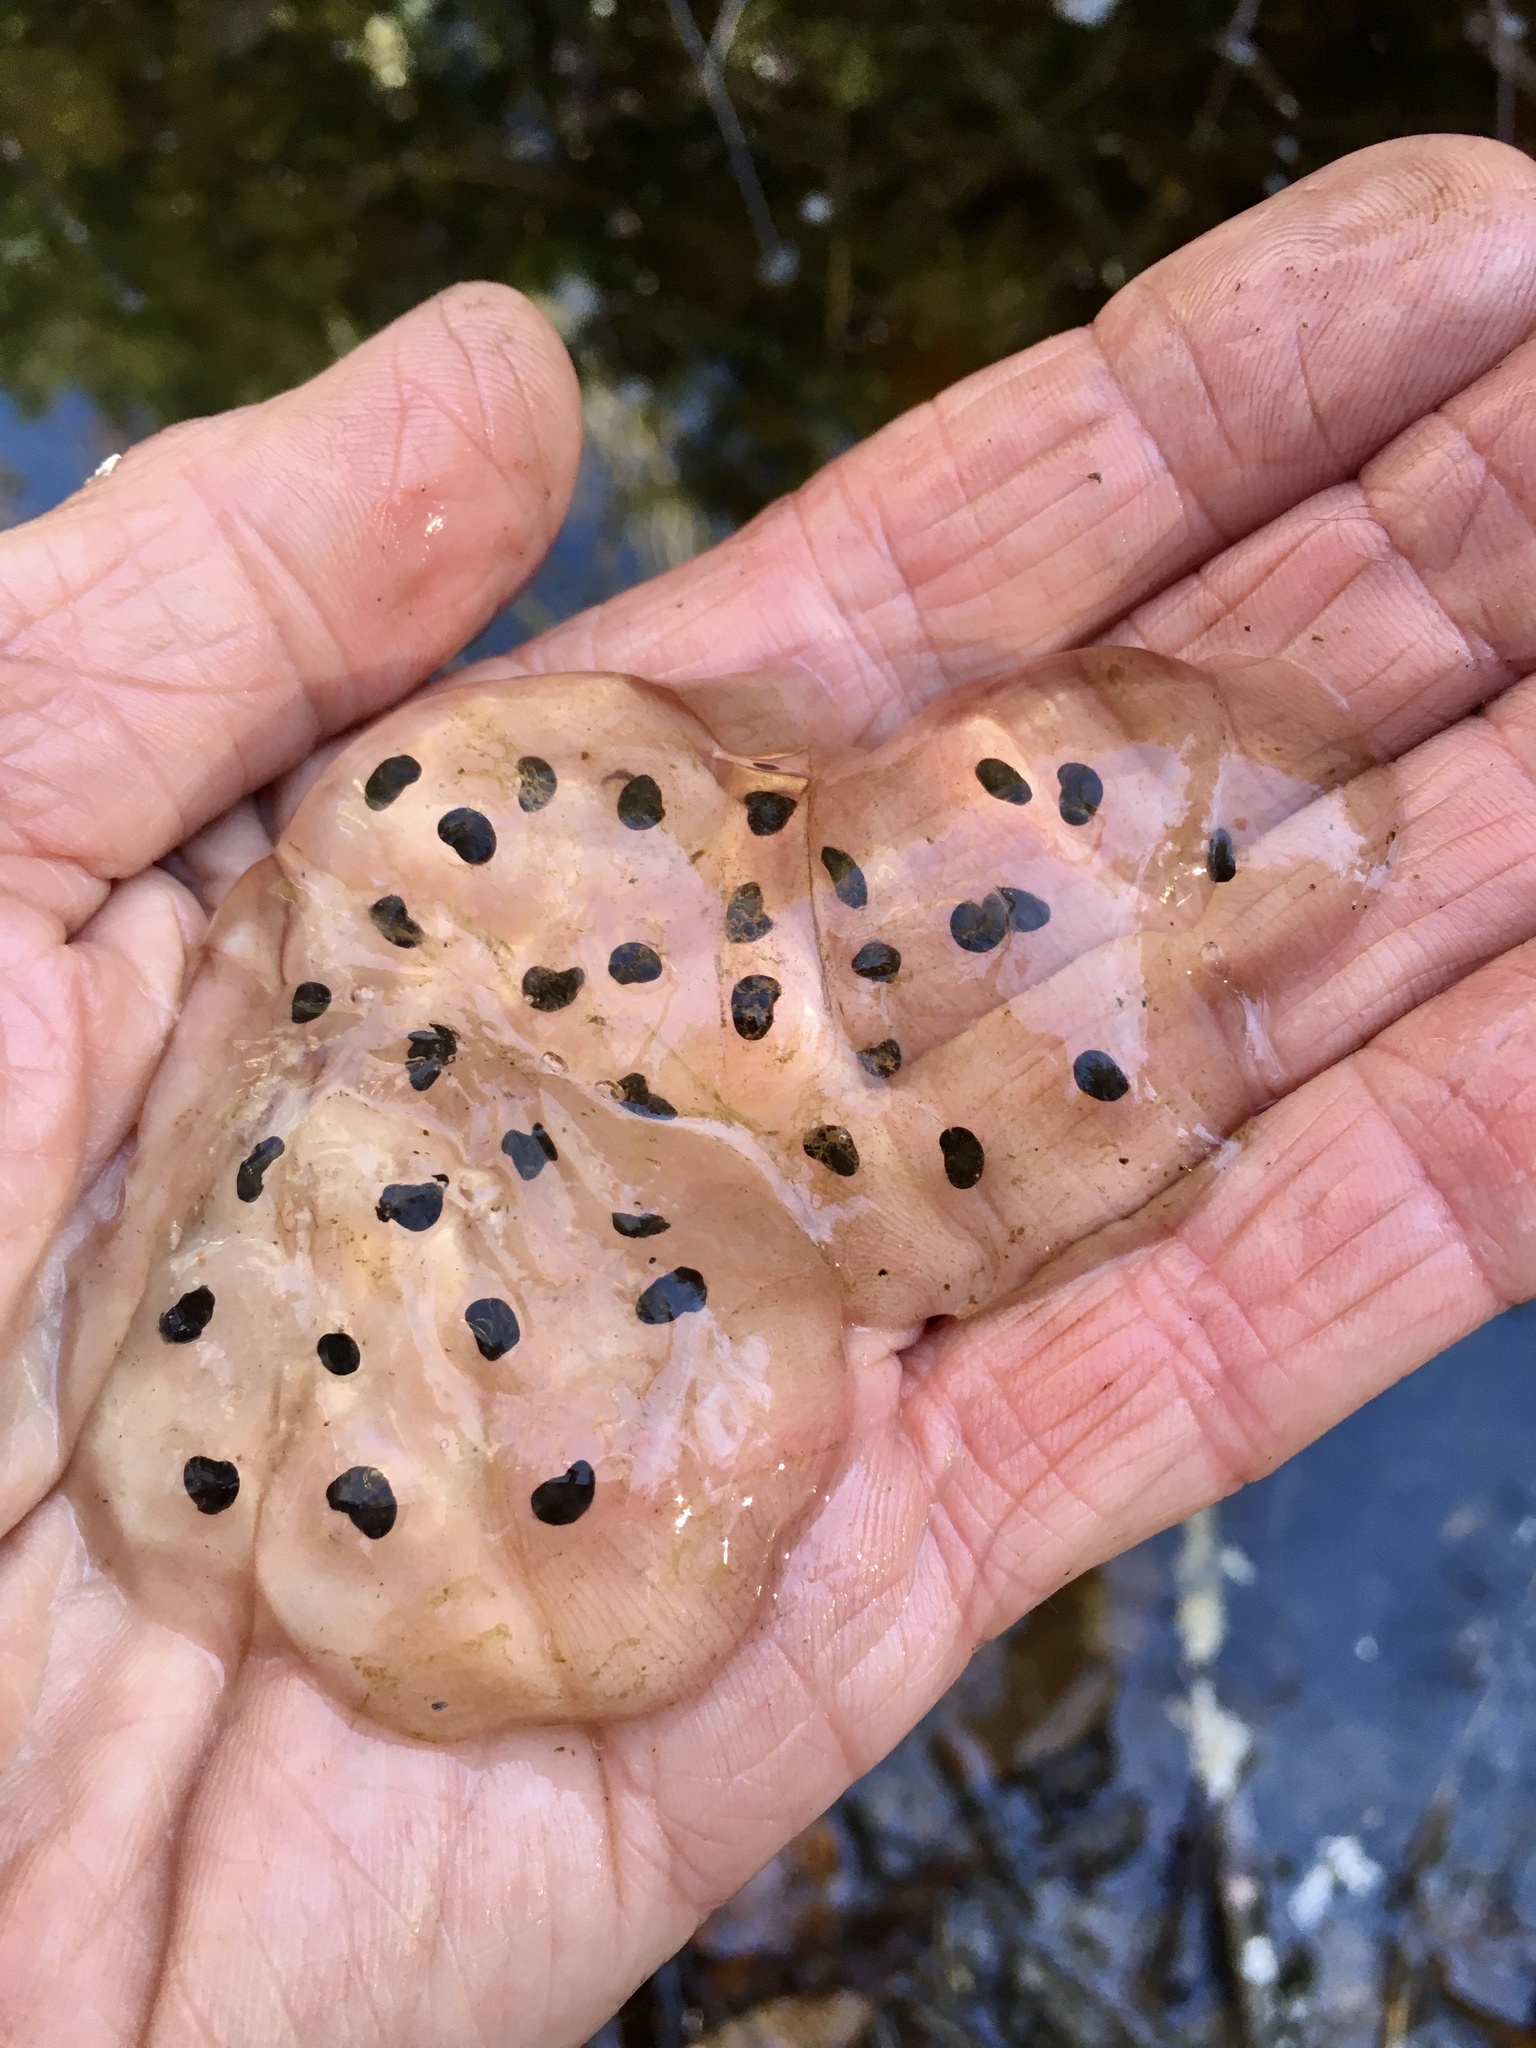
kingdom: Animalia
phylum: Chordata
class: Amphibia
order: Caudata
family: Ambystomatidae
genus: Ambystoma
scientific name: Ambystoma jeffersonianum
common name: Jefferson salamander
